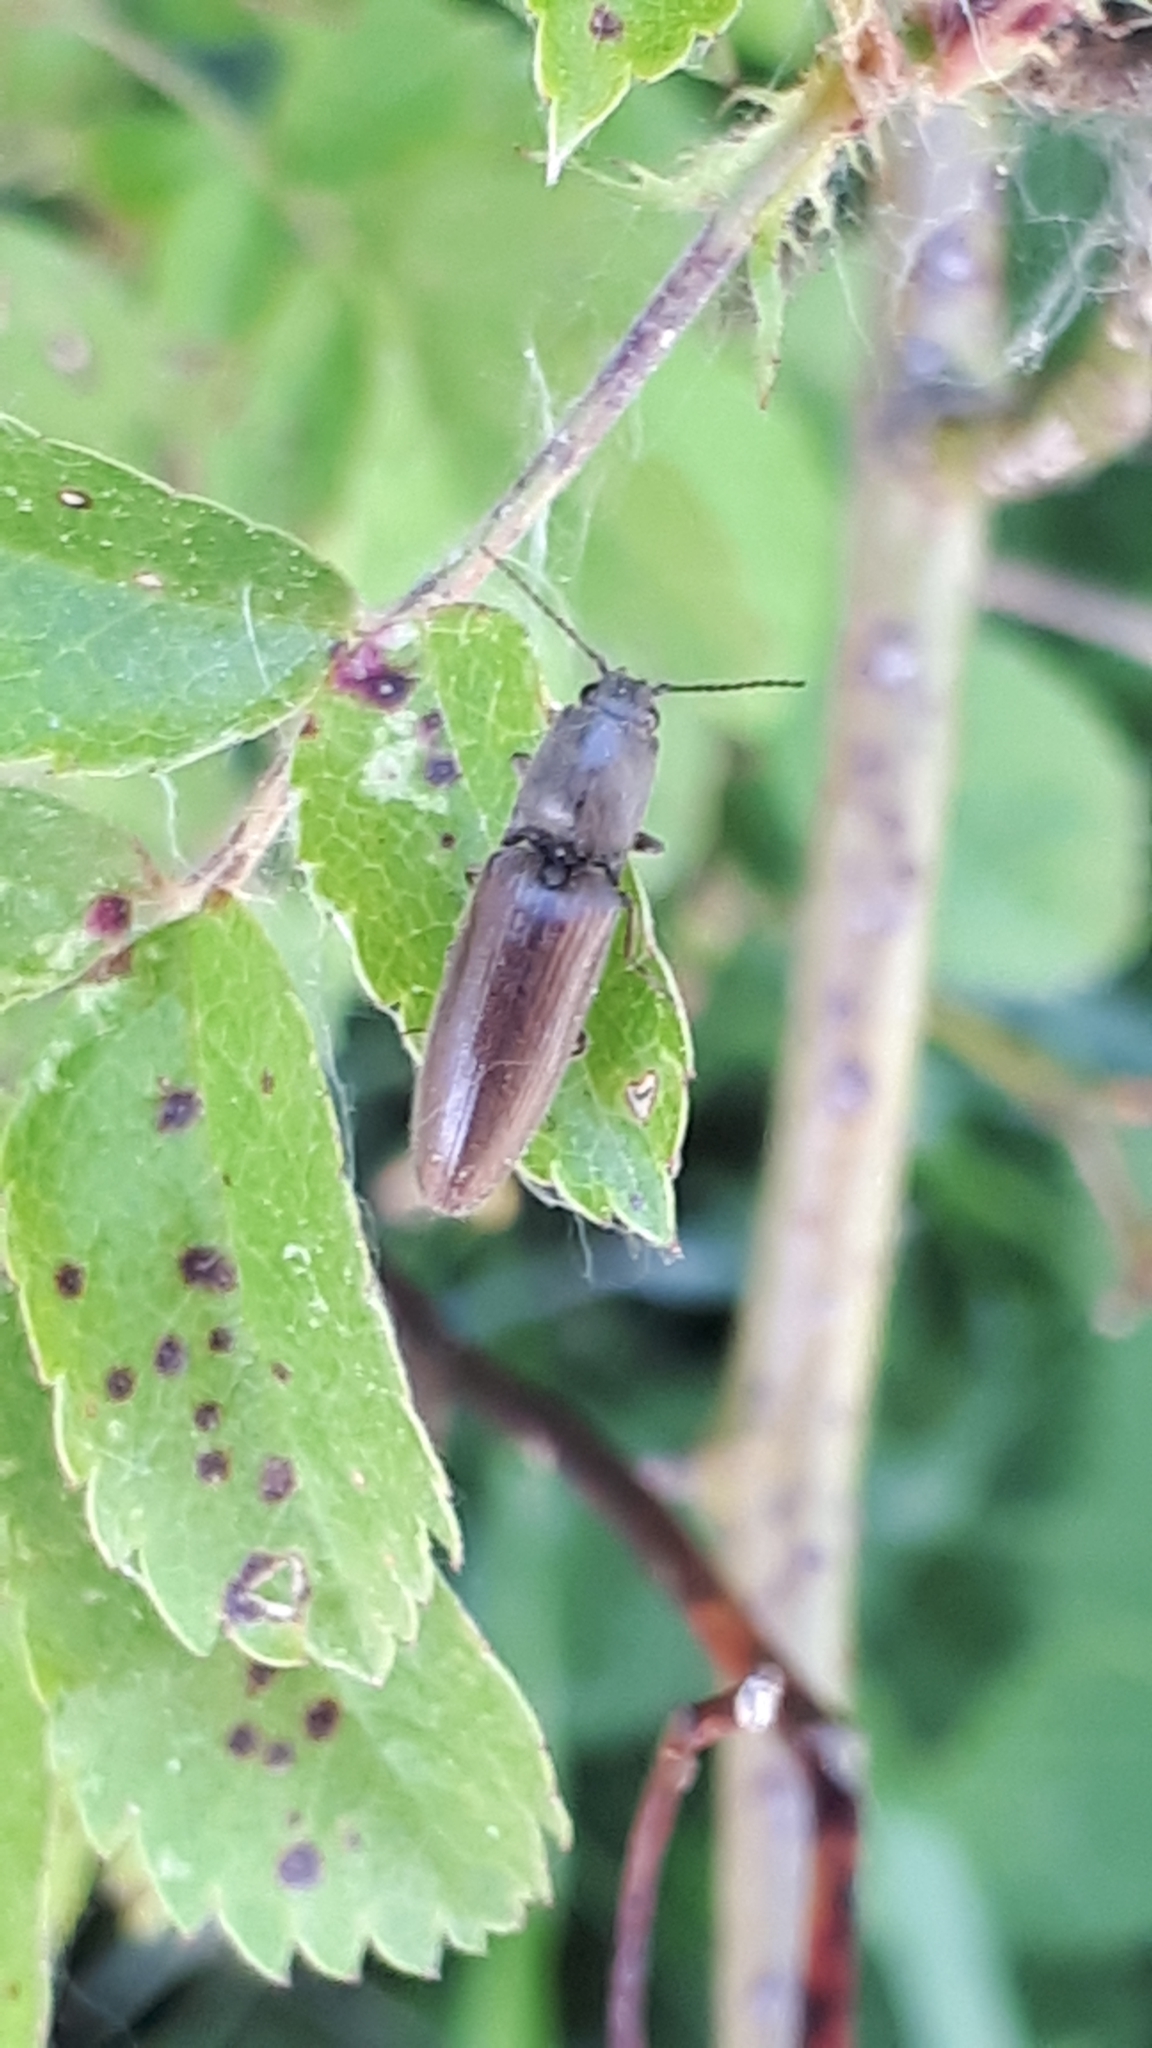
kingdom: Animalia
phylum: Arthropoda
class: Insecta
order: Coleoptera
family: Elateridae
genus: Athous
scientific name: Athous haemorrhoidalis
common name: Red-brown click beetle
